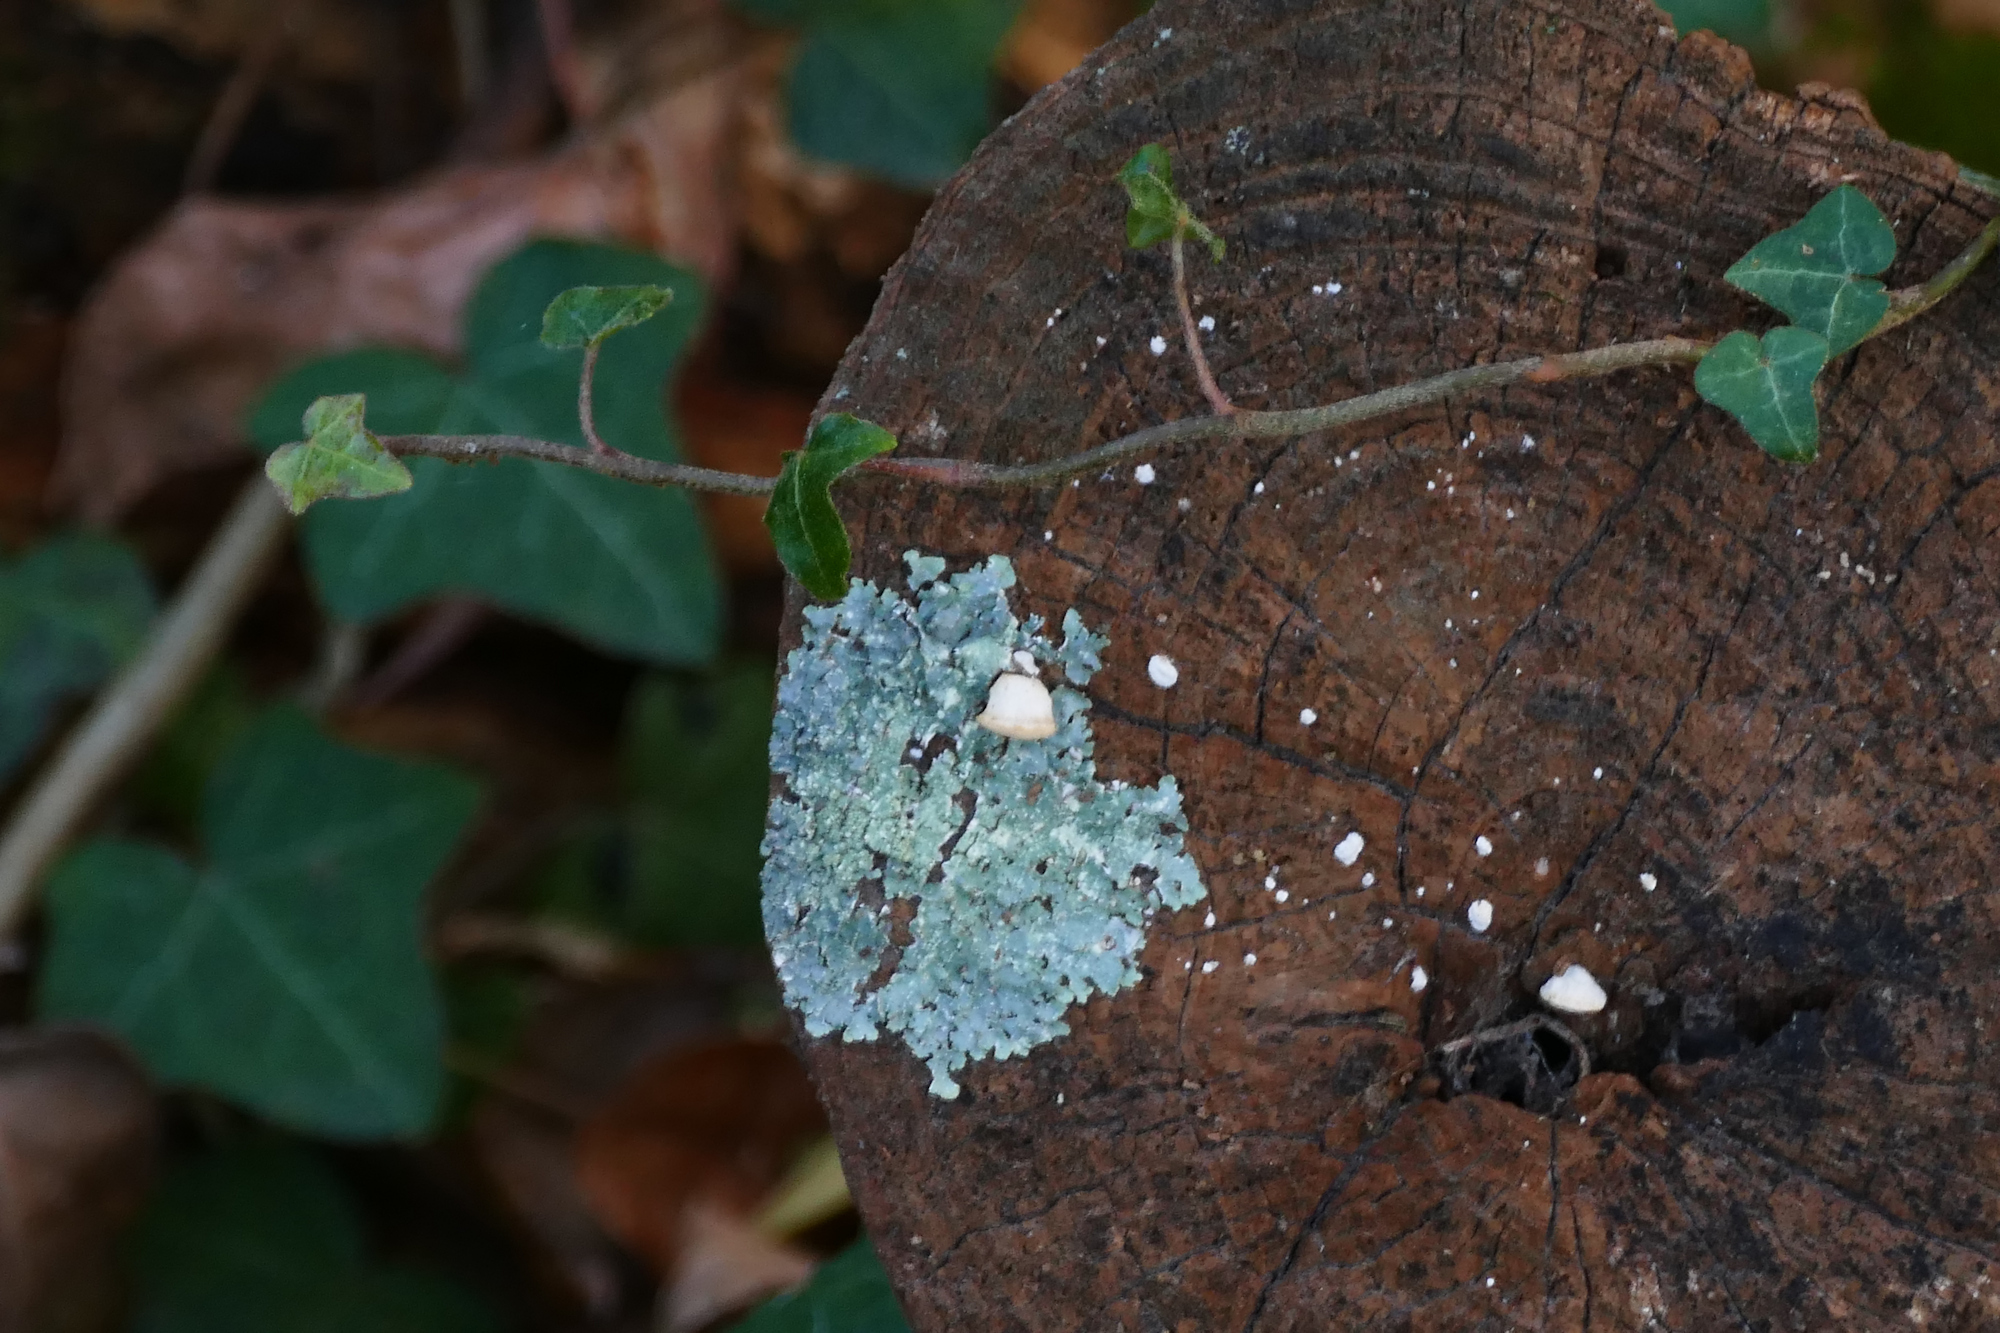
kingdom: Plantae
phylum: Tracheophyta
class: Magnoliopsida
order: Apiales
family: Araliaceae
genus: Hedera
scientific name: Hedera helix
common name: Ivy
